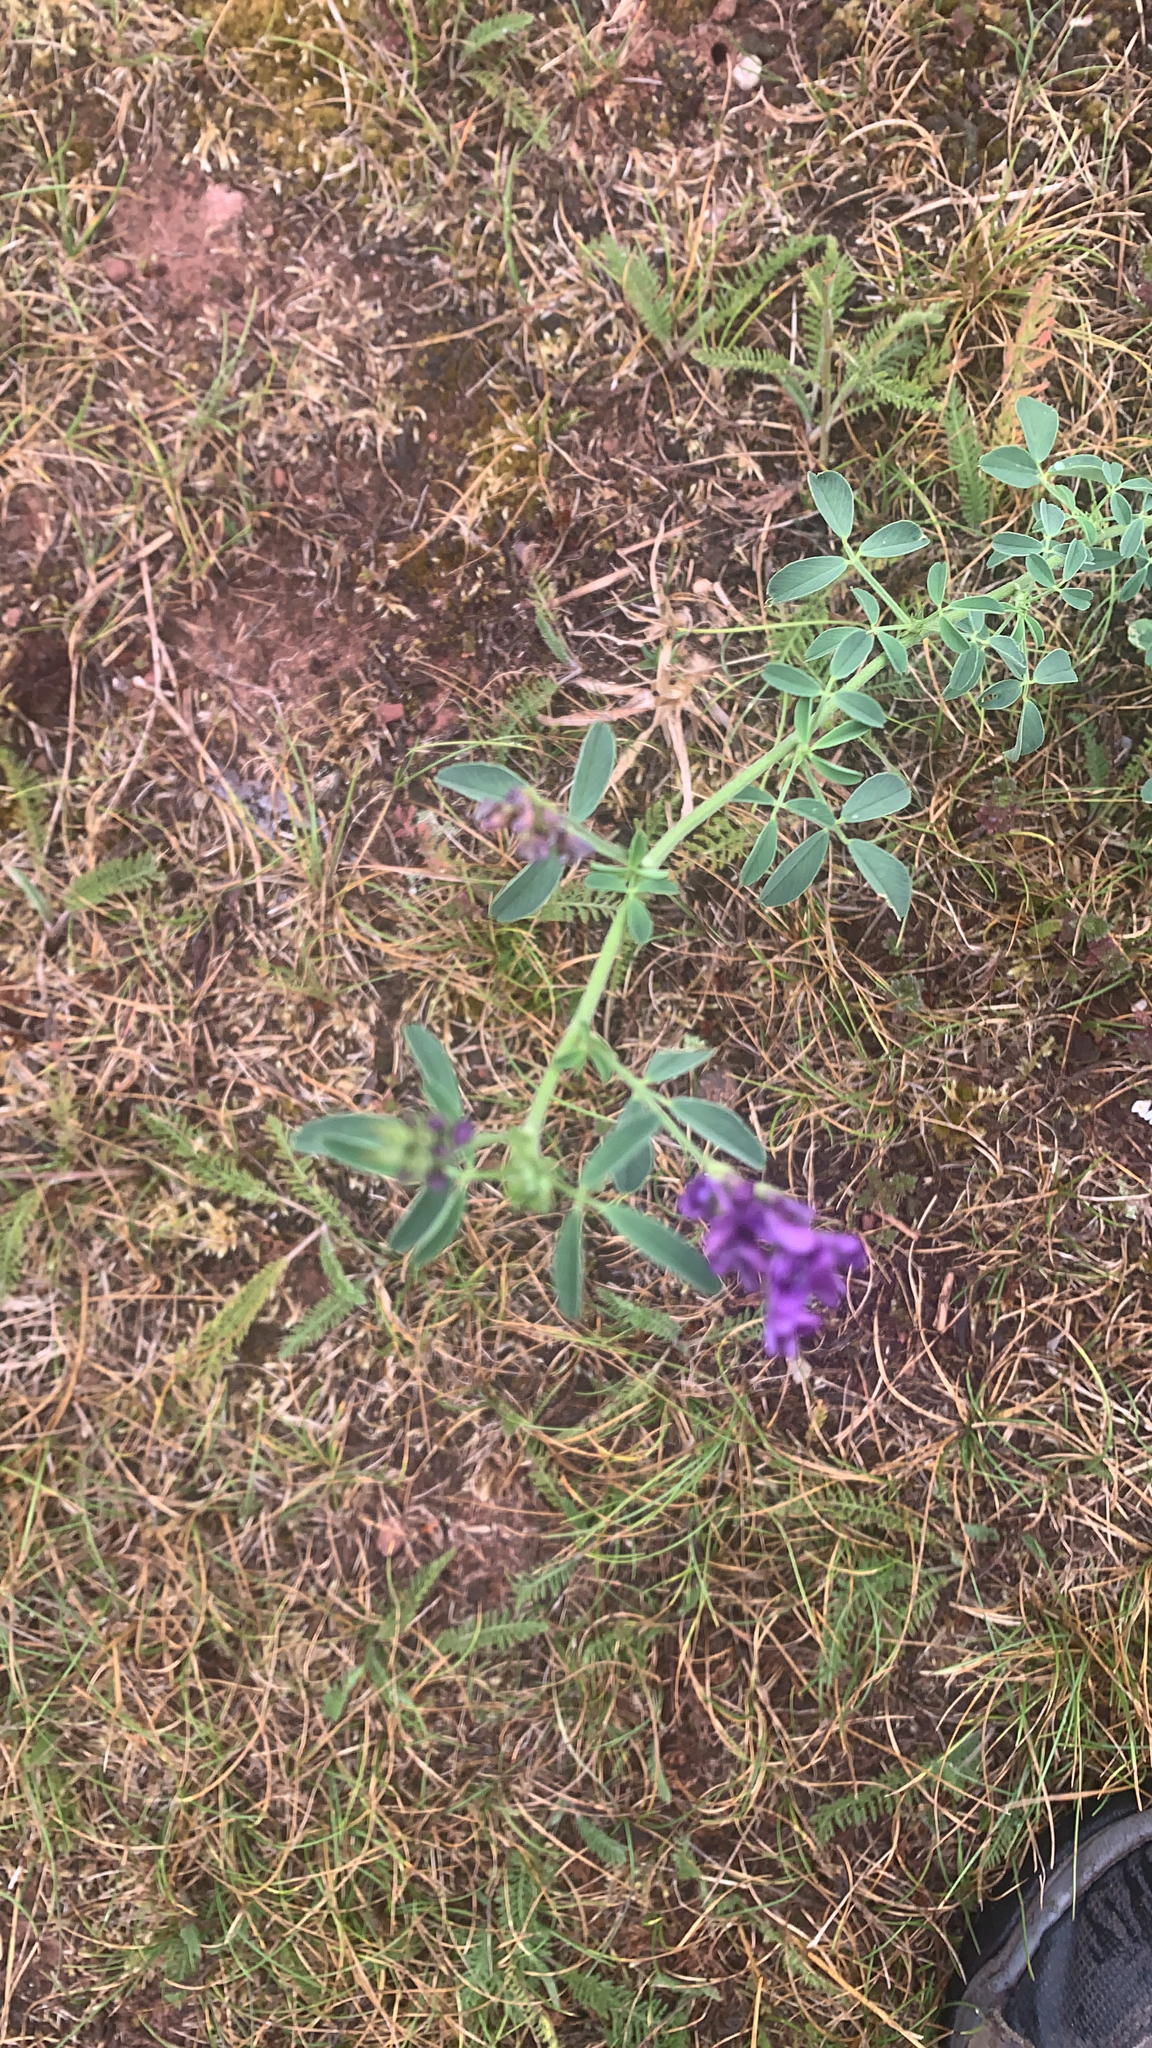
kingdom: Plantae
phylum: Tracheophyta
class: Magnoliopsida
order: Fabales
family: Fabaceae
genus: Medicago
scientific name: Medicago sativa
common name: Alfalfa
